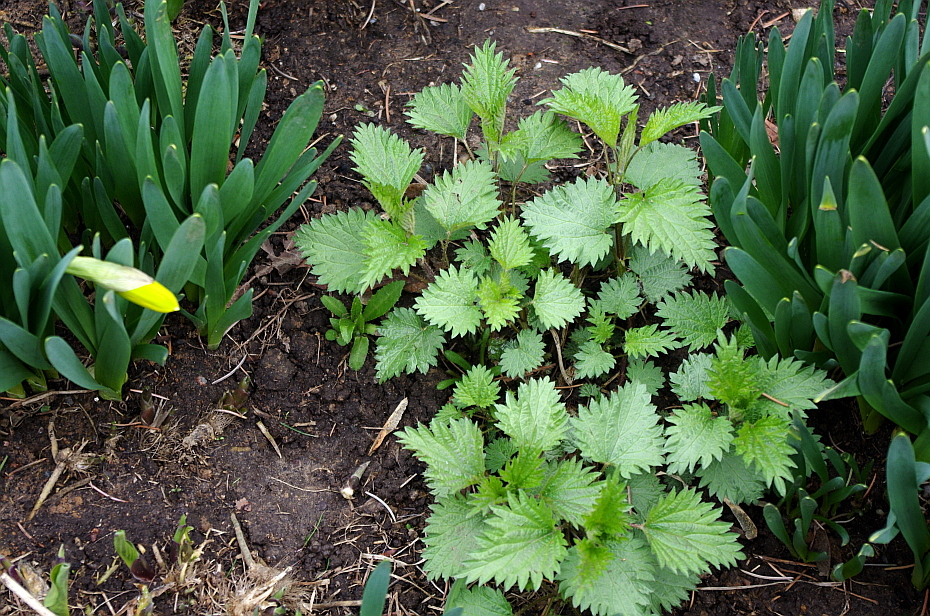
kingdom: Plantae
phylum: Tracheophyta
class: Magnoliopsida
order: Rosales
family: Urticaceae
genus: Urtica
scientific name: Urtica dioica
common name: Common nettle
